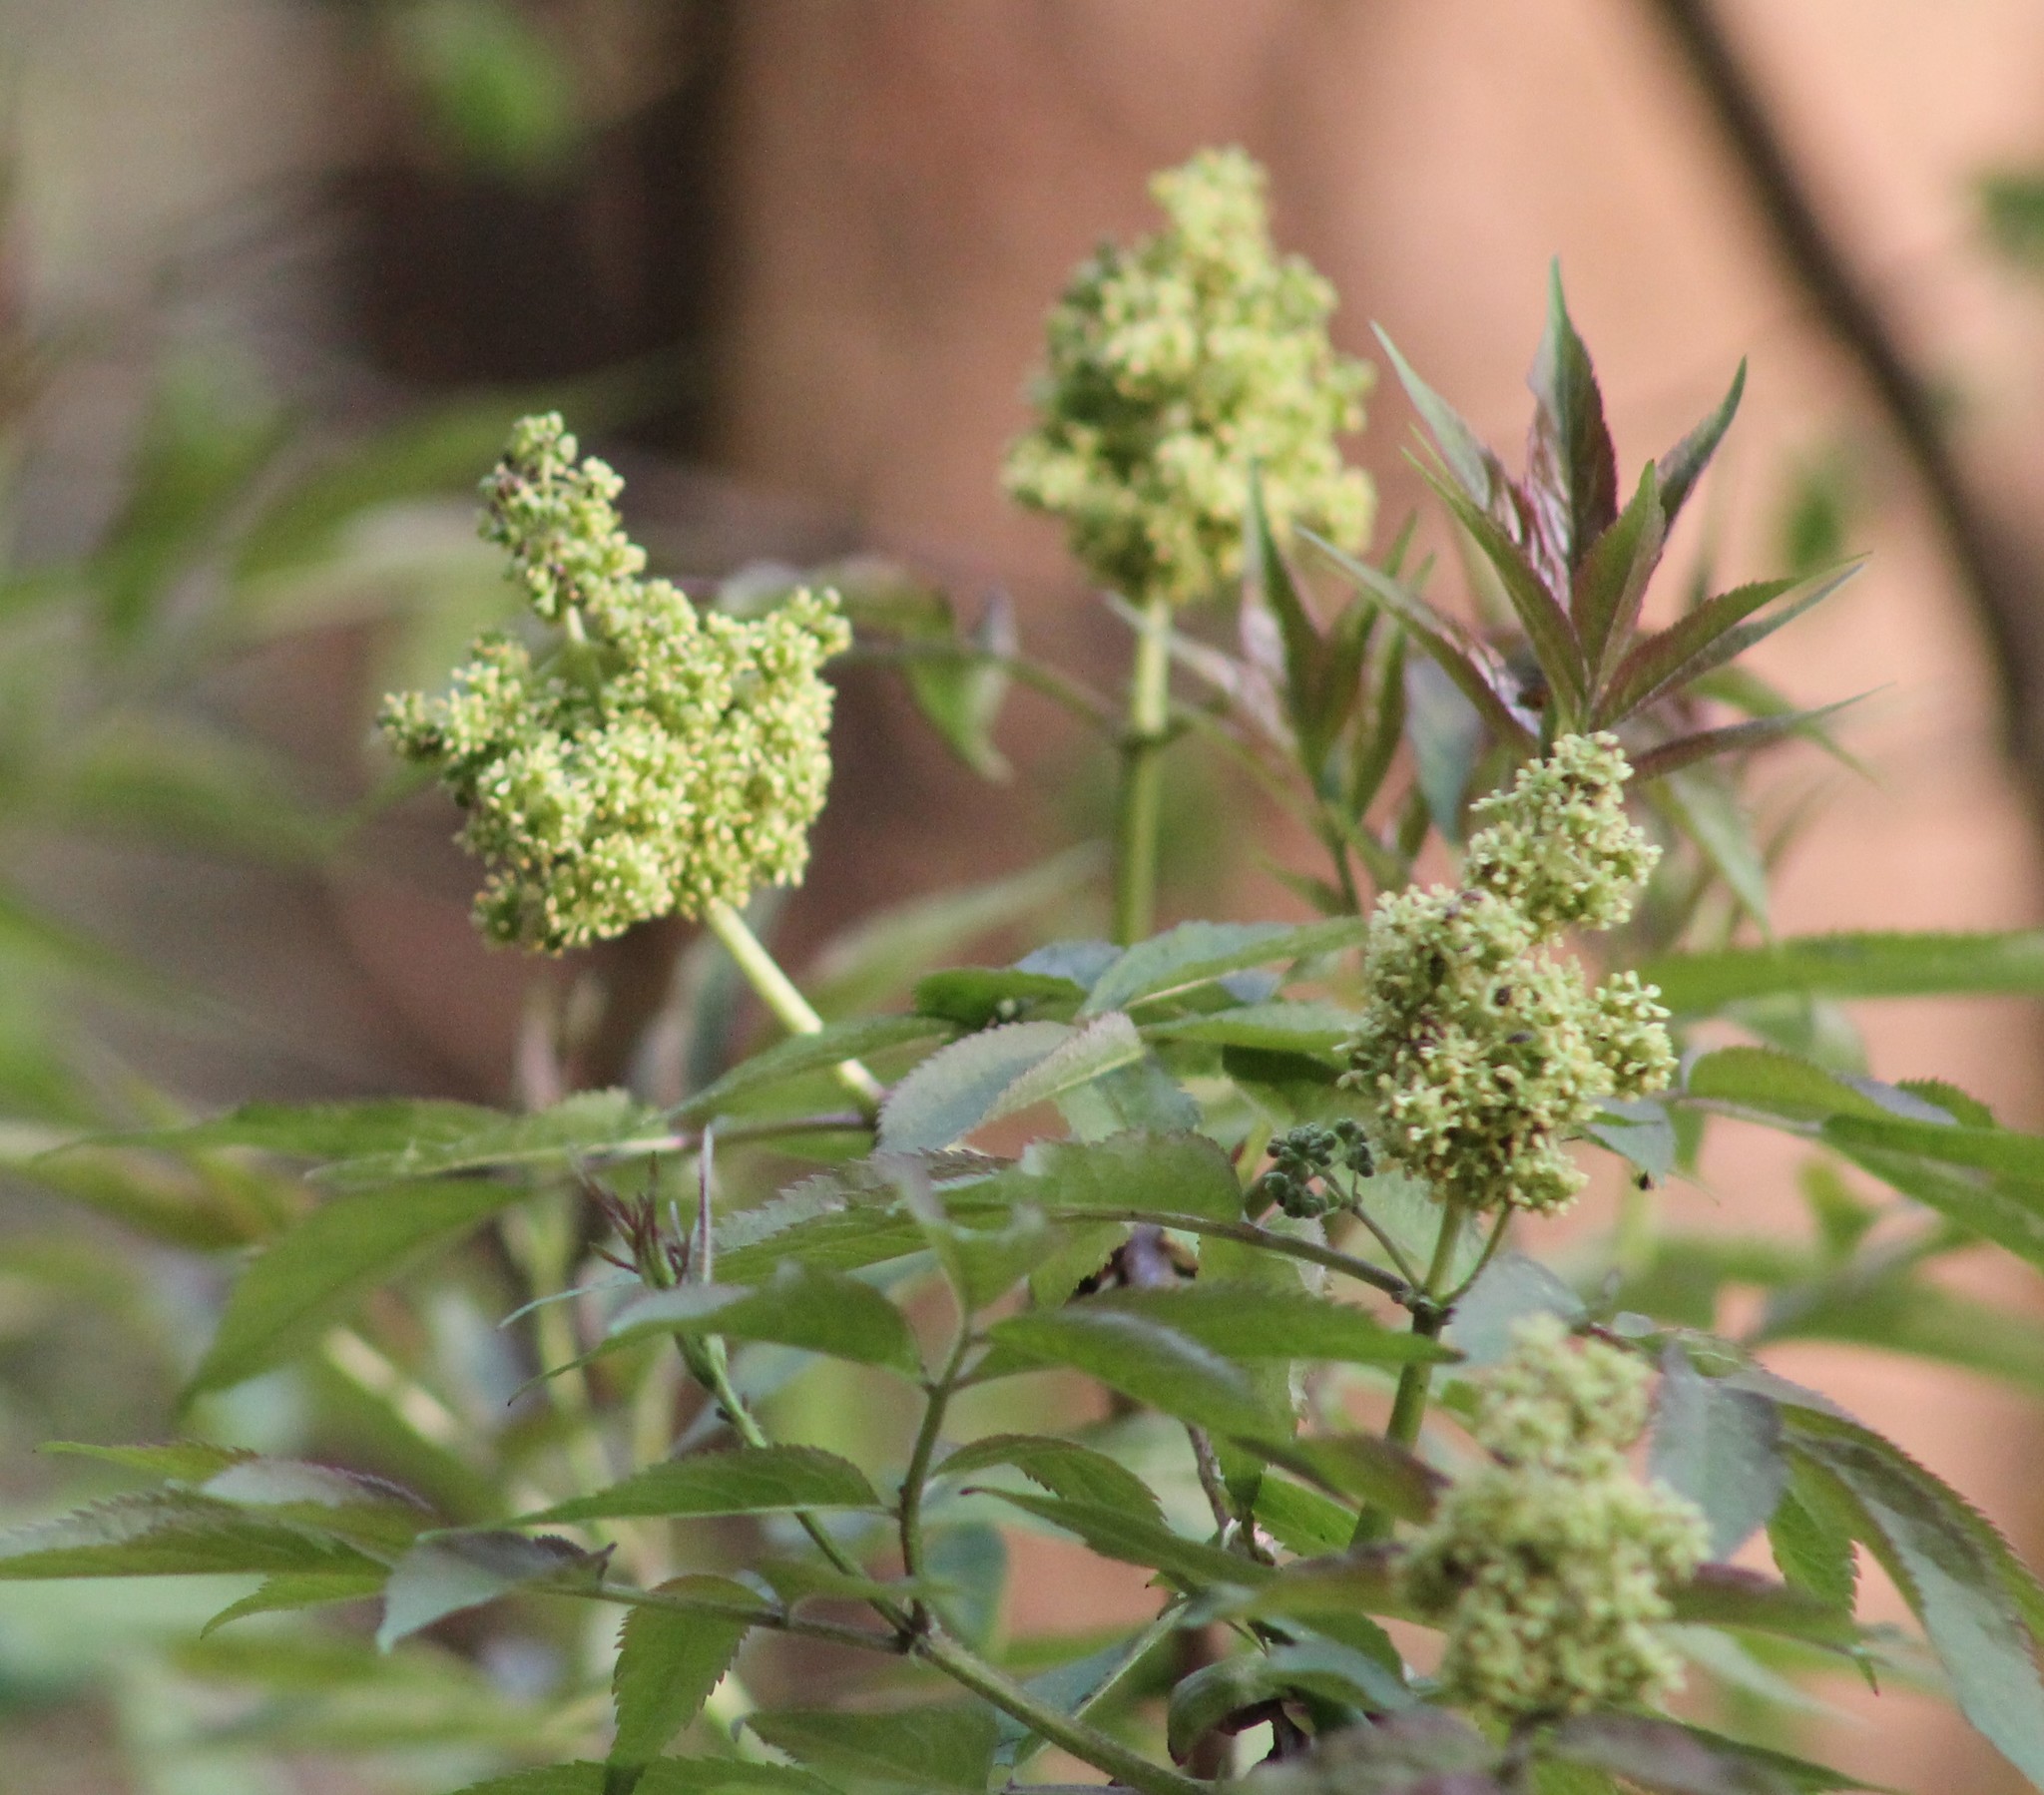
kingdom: Plantae
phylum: Tracheophyta
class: Magnoliopsida
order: Dipsacales
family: Viburnaceae
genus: Sambucus
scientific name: Sambucus racemosa
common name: Red-berried elder
